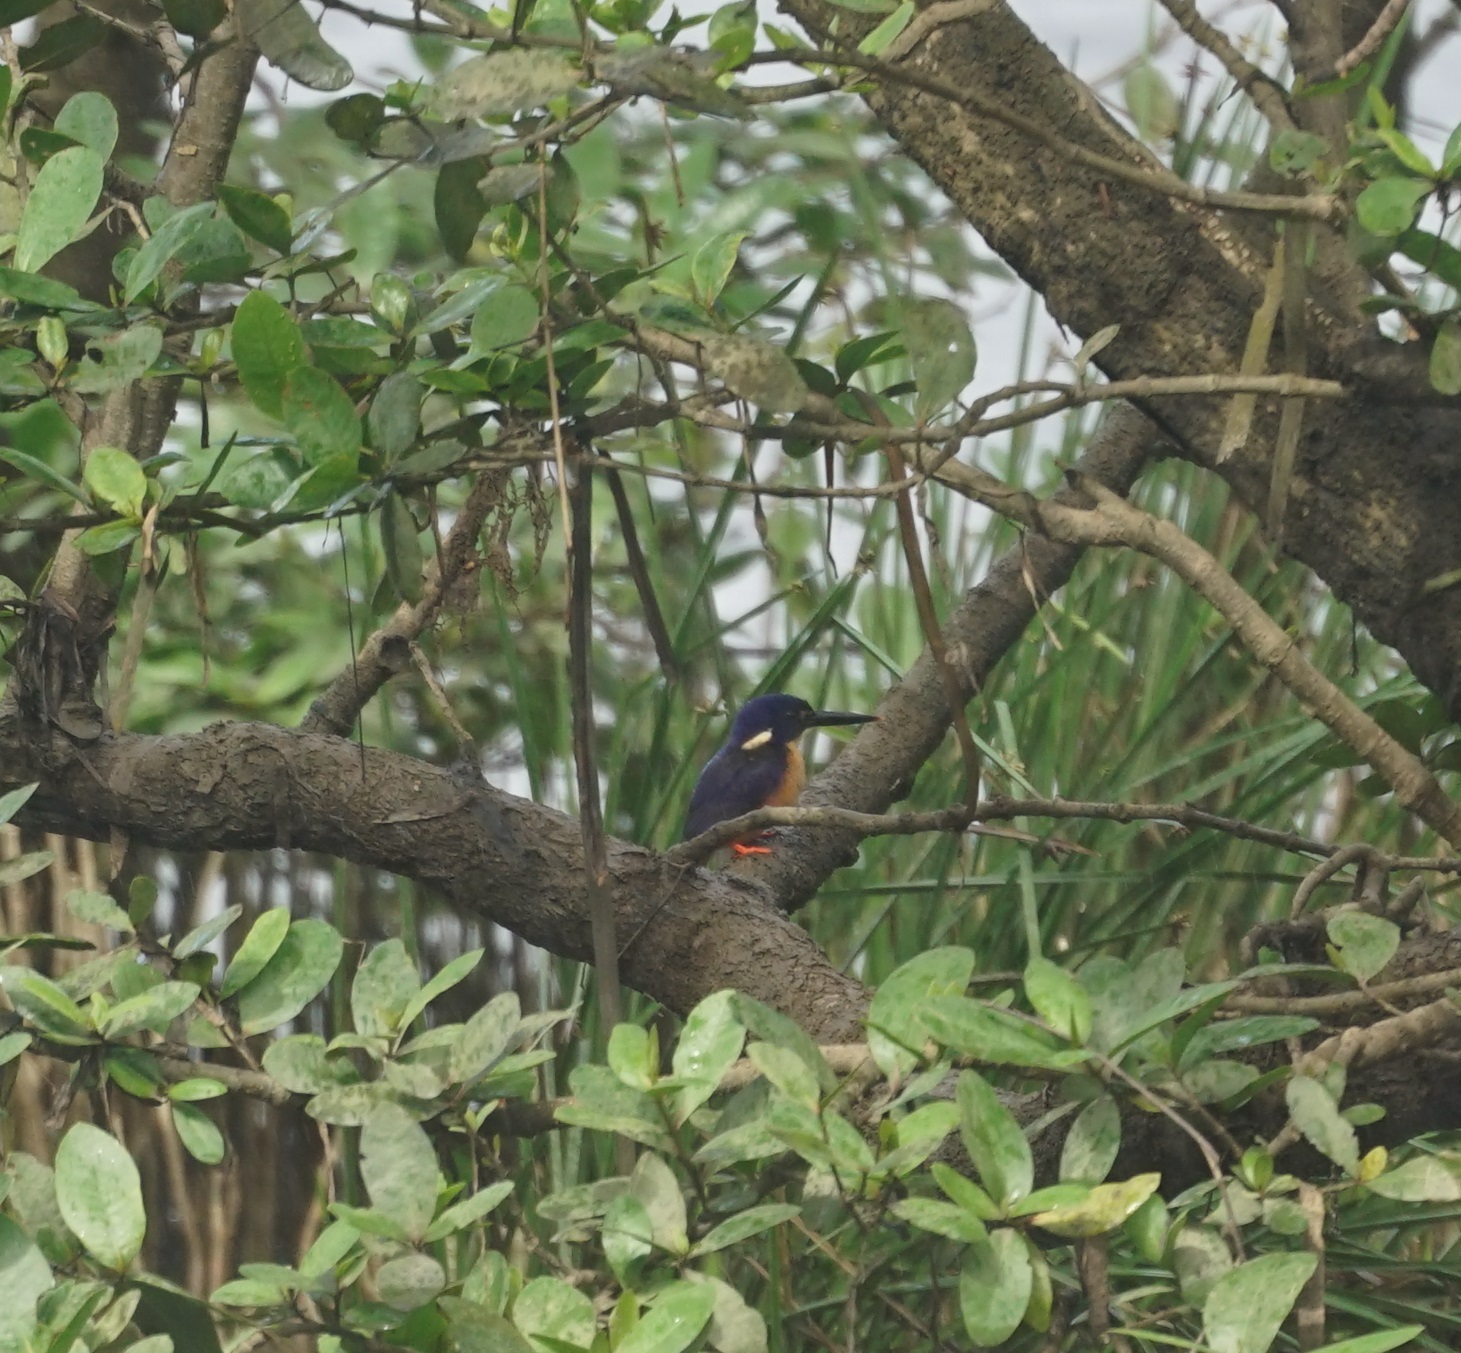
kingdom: Animalia
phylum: Chordata
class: Aves
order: Coraciiformes
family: Alcedinidae
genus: Ceyx
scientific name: Ceyx azureus
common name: Azure kingfisher
